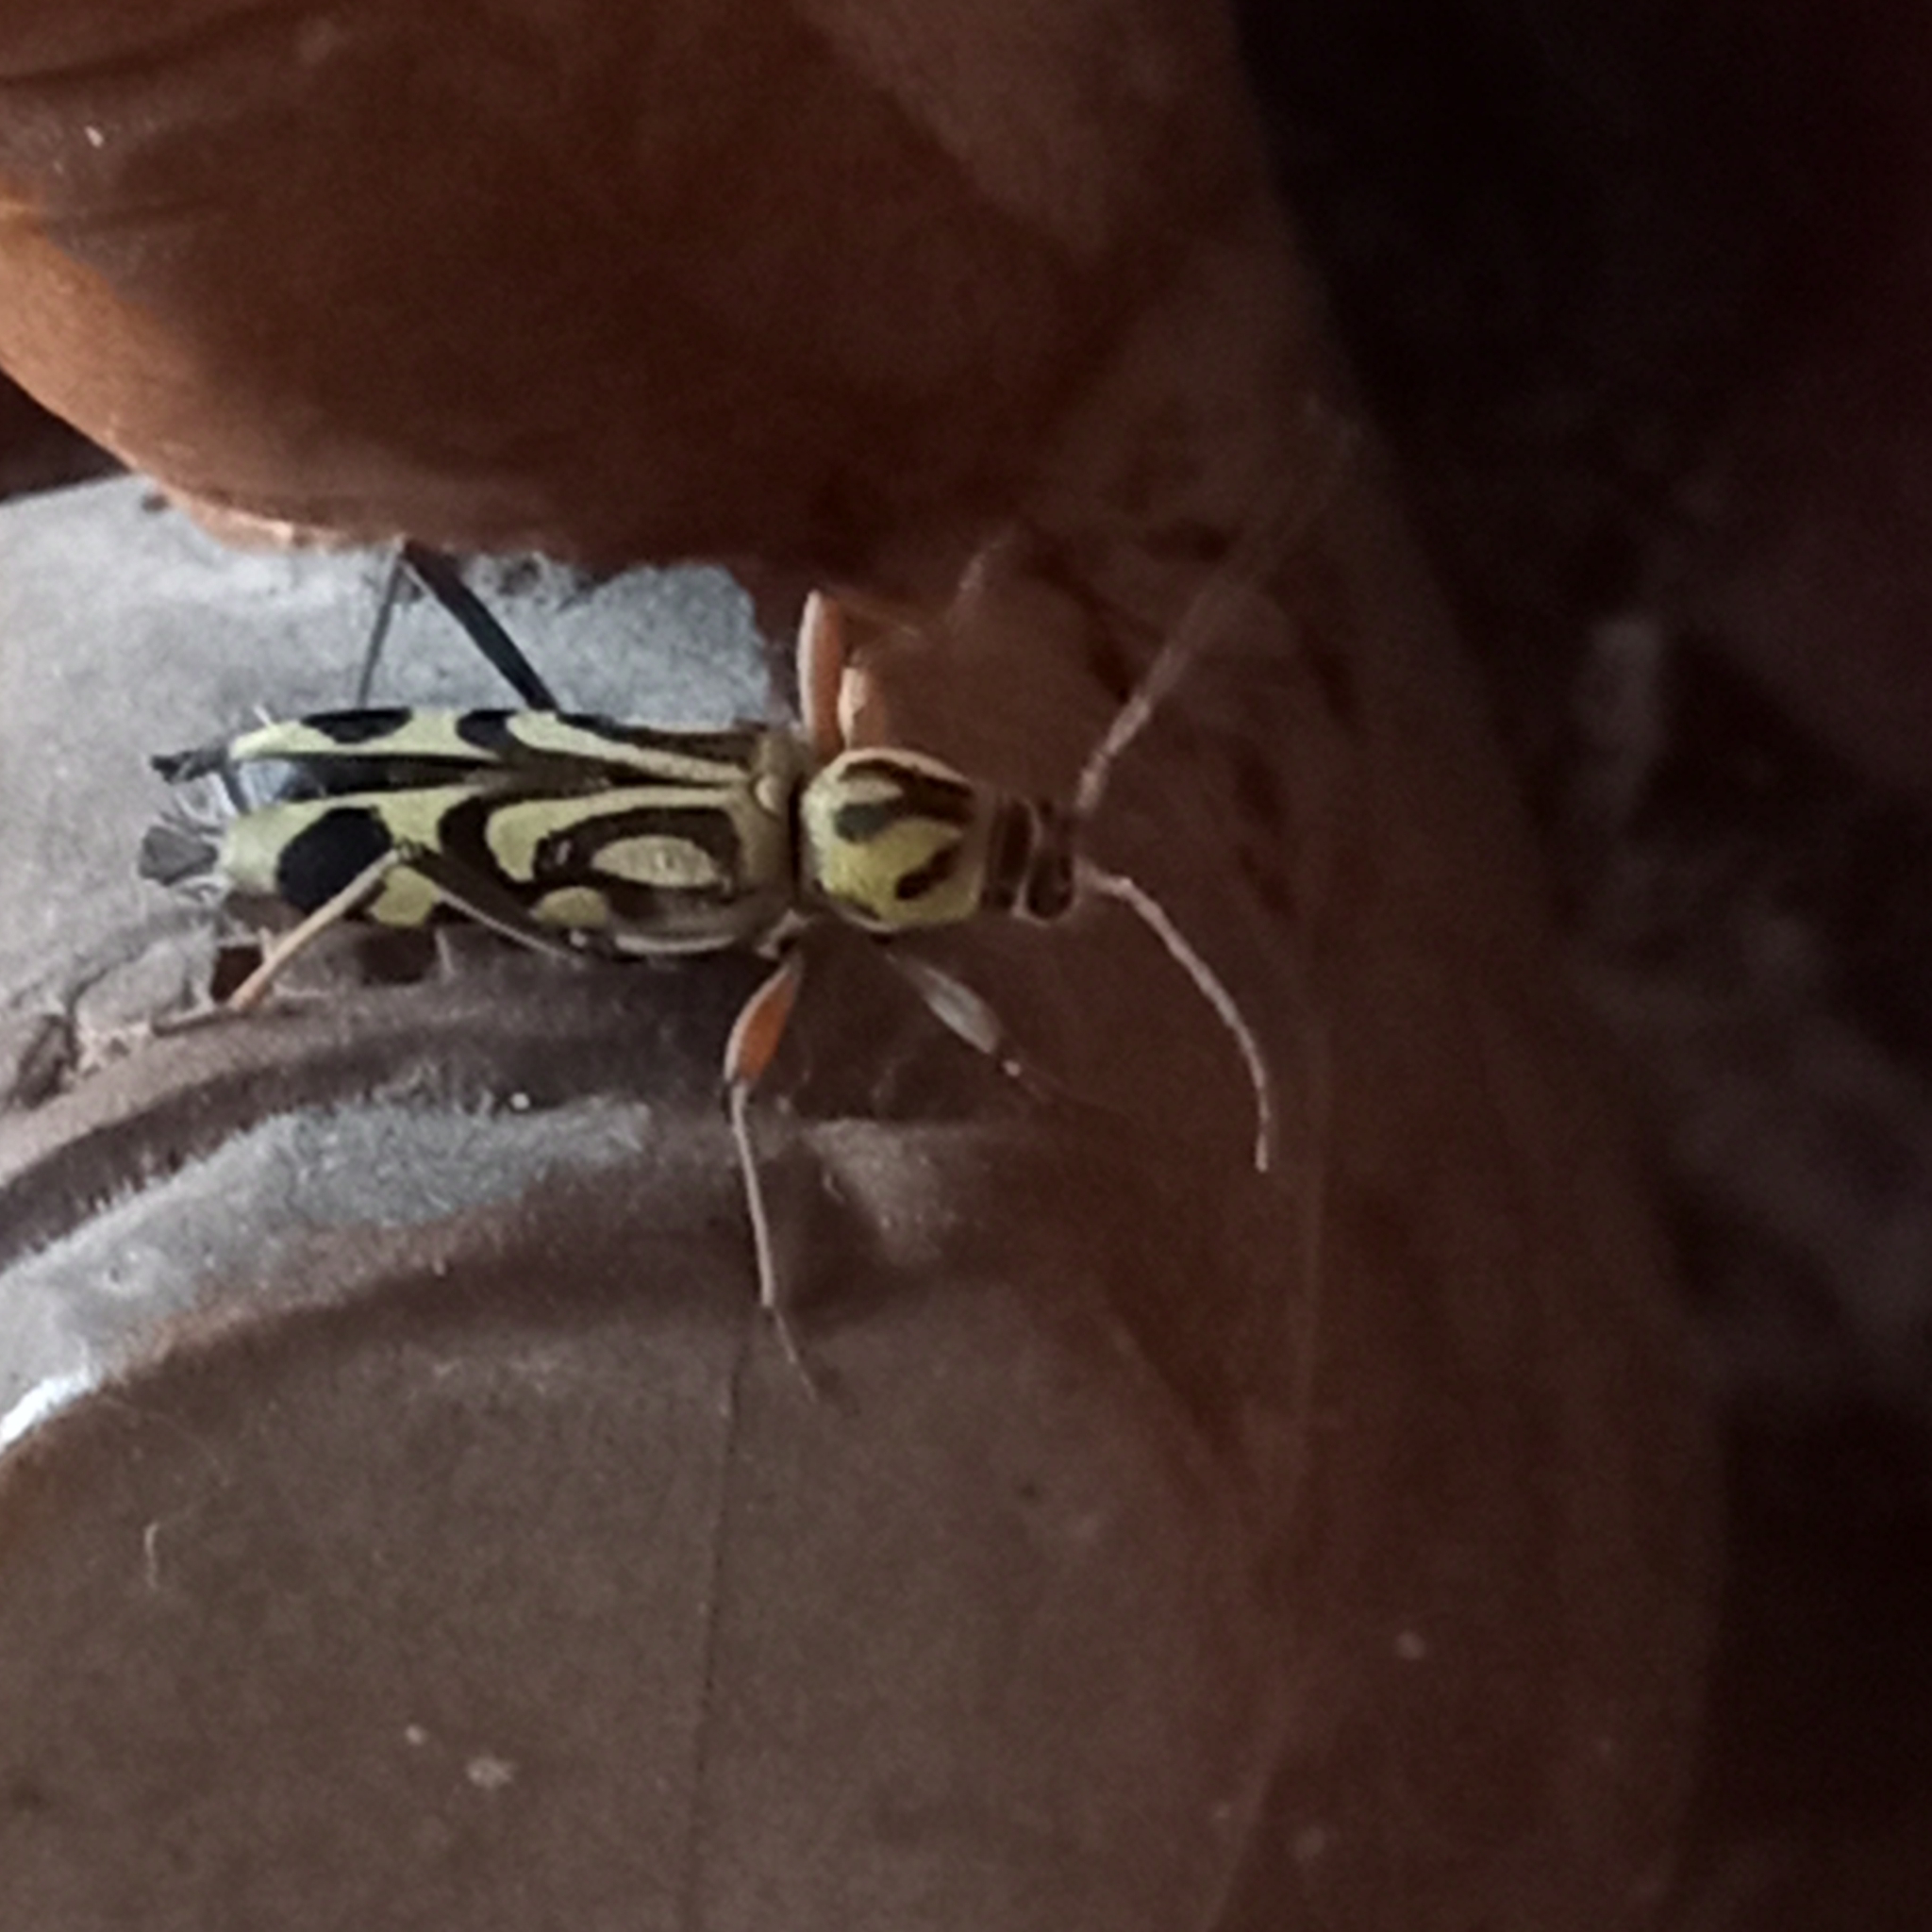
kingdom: Animalia
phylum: Arthropoda
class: Insecta
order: Coleoptera
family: Cerambycidae
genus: Chlorophorus
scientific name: Chlorophorus annularis
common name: Bamboo longhorn beetle
